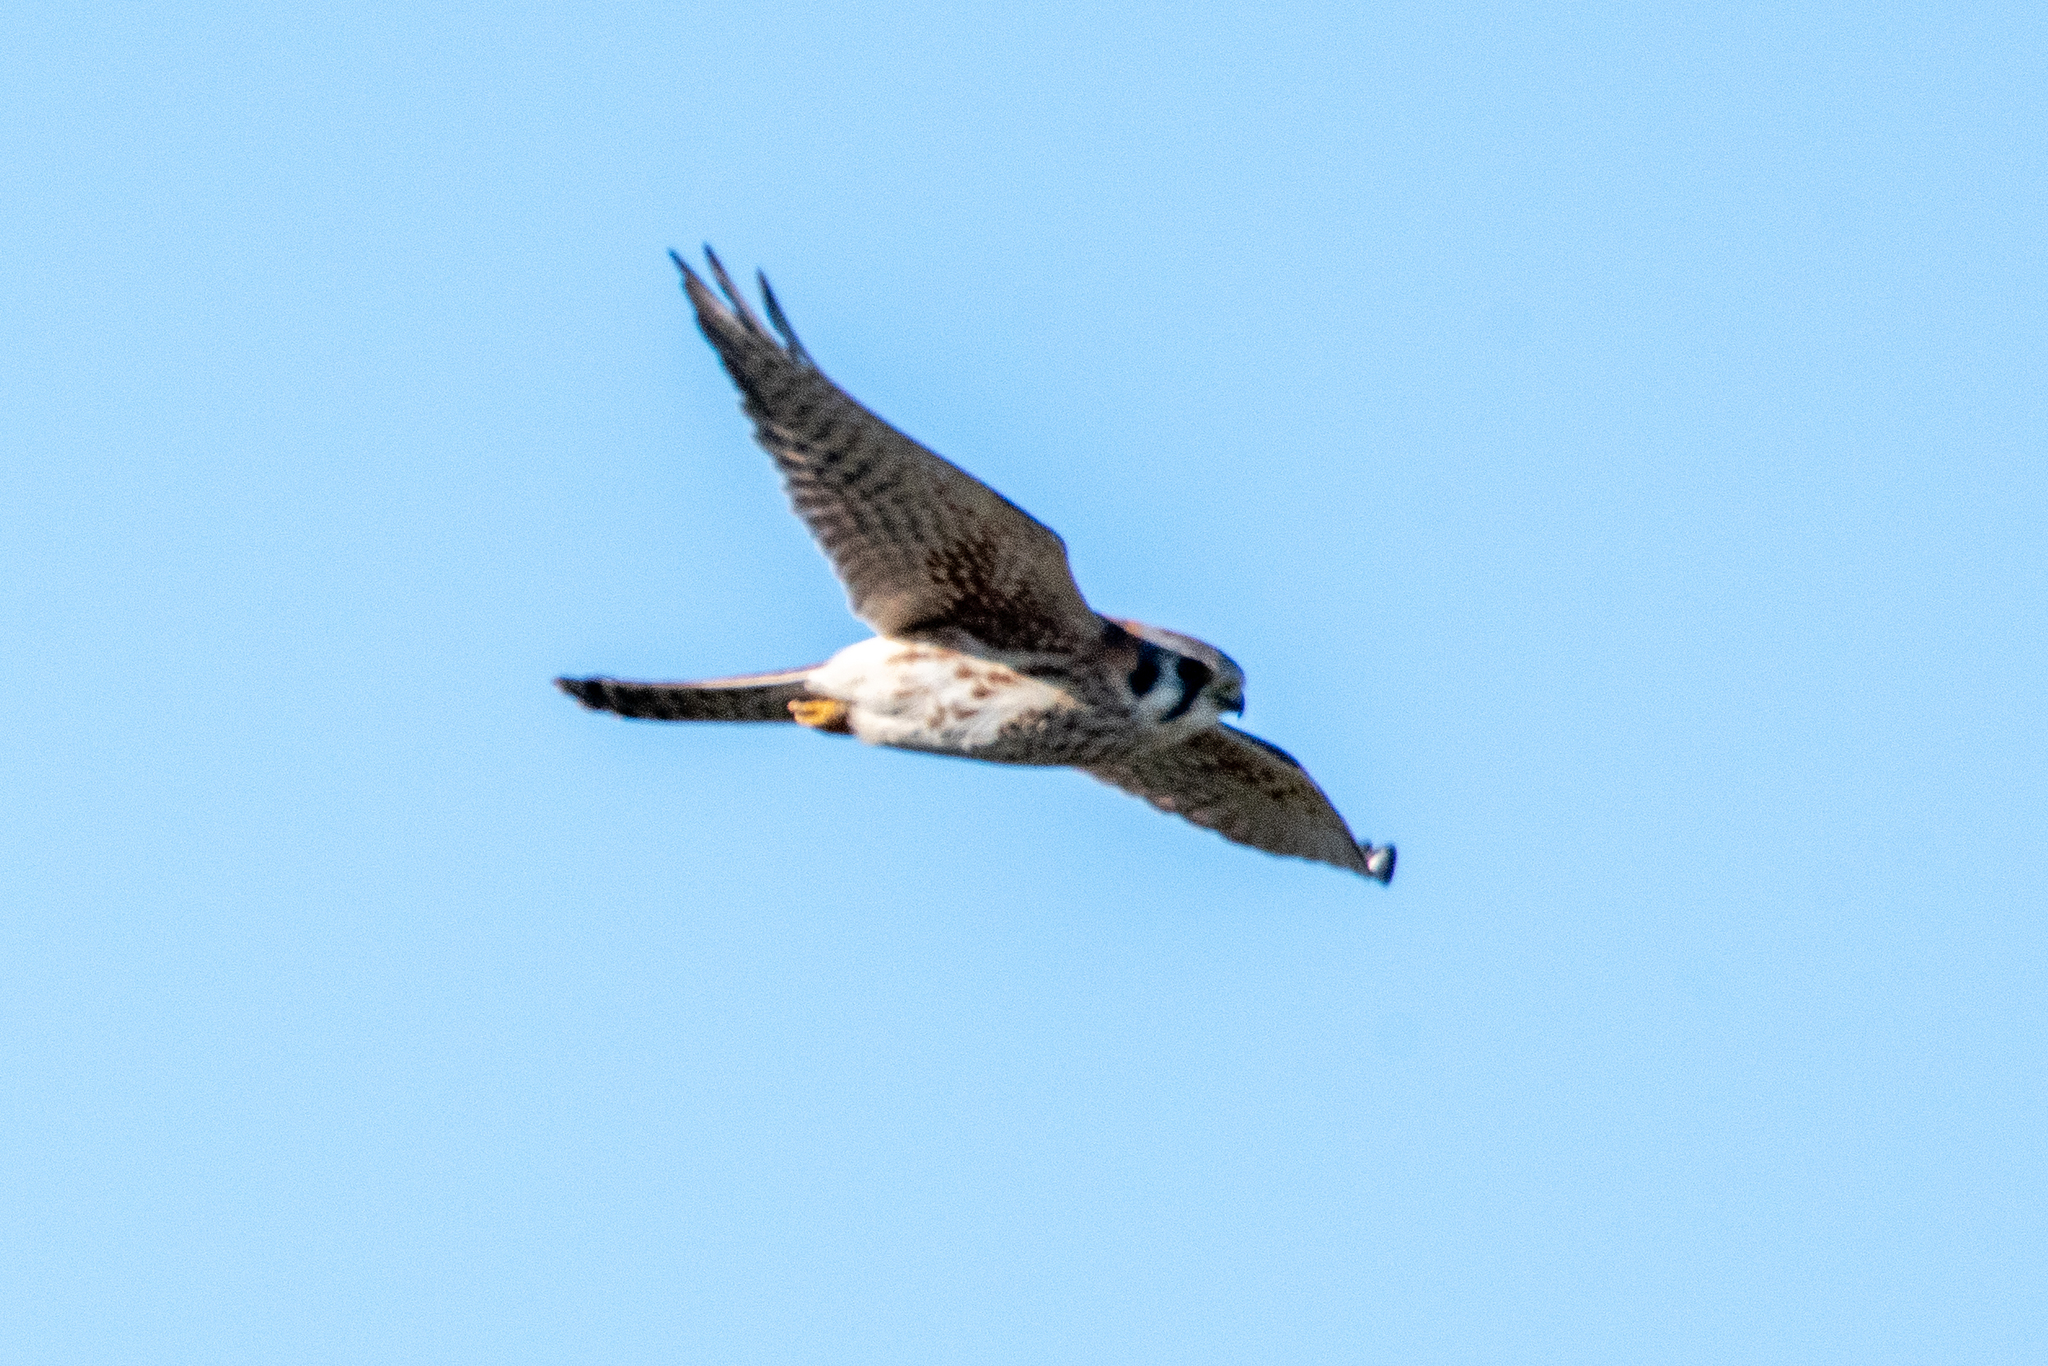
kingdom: Animalia
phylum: Chordata
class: Aves
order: Falconiformes
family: Falconidae
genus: Falco
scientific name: Falco sparverius
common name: American kestrel
